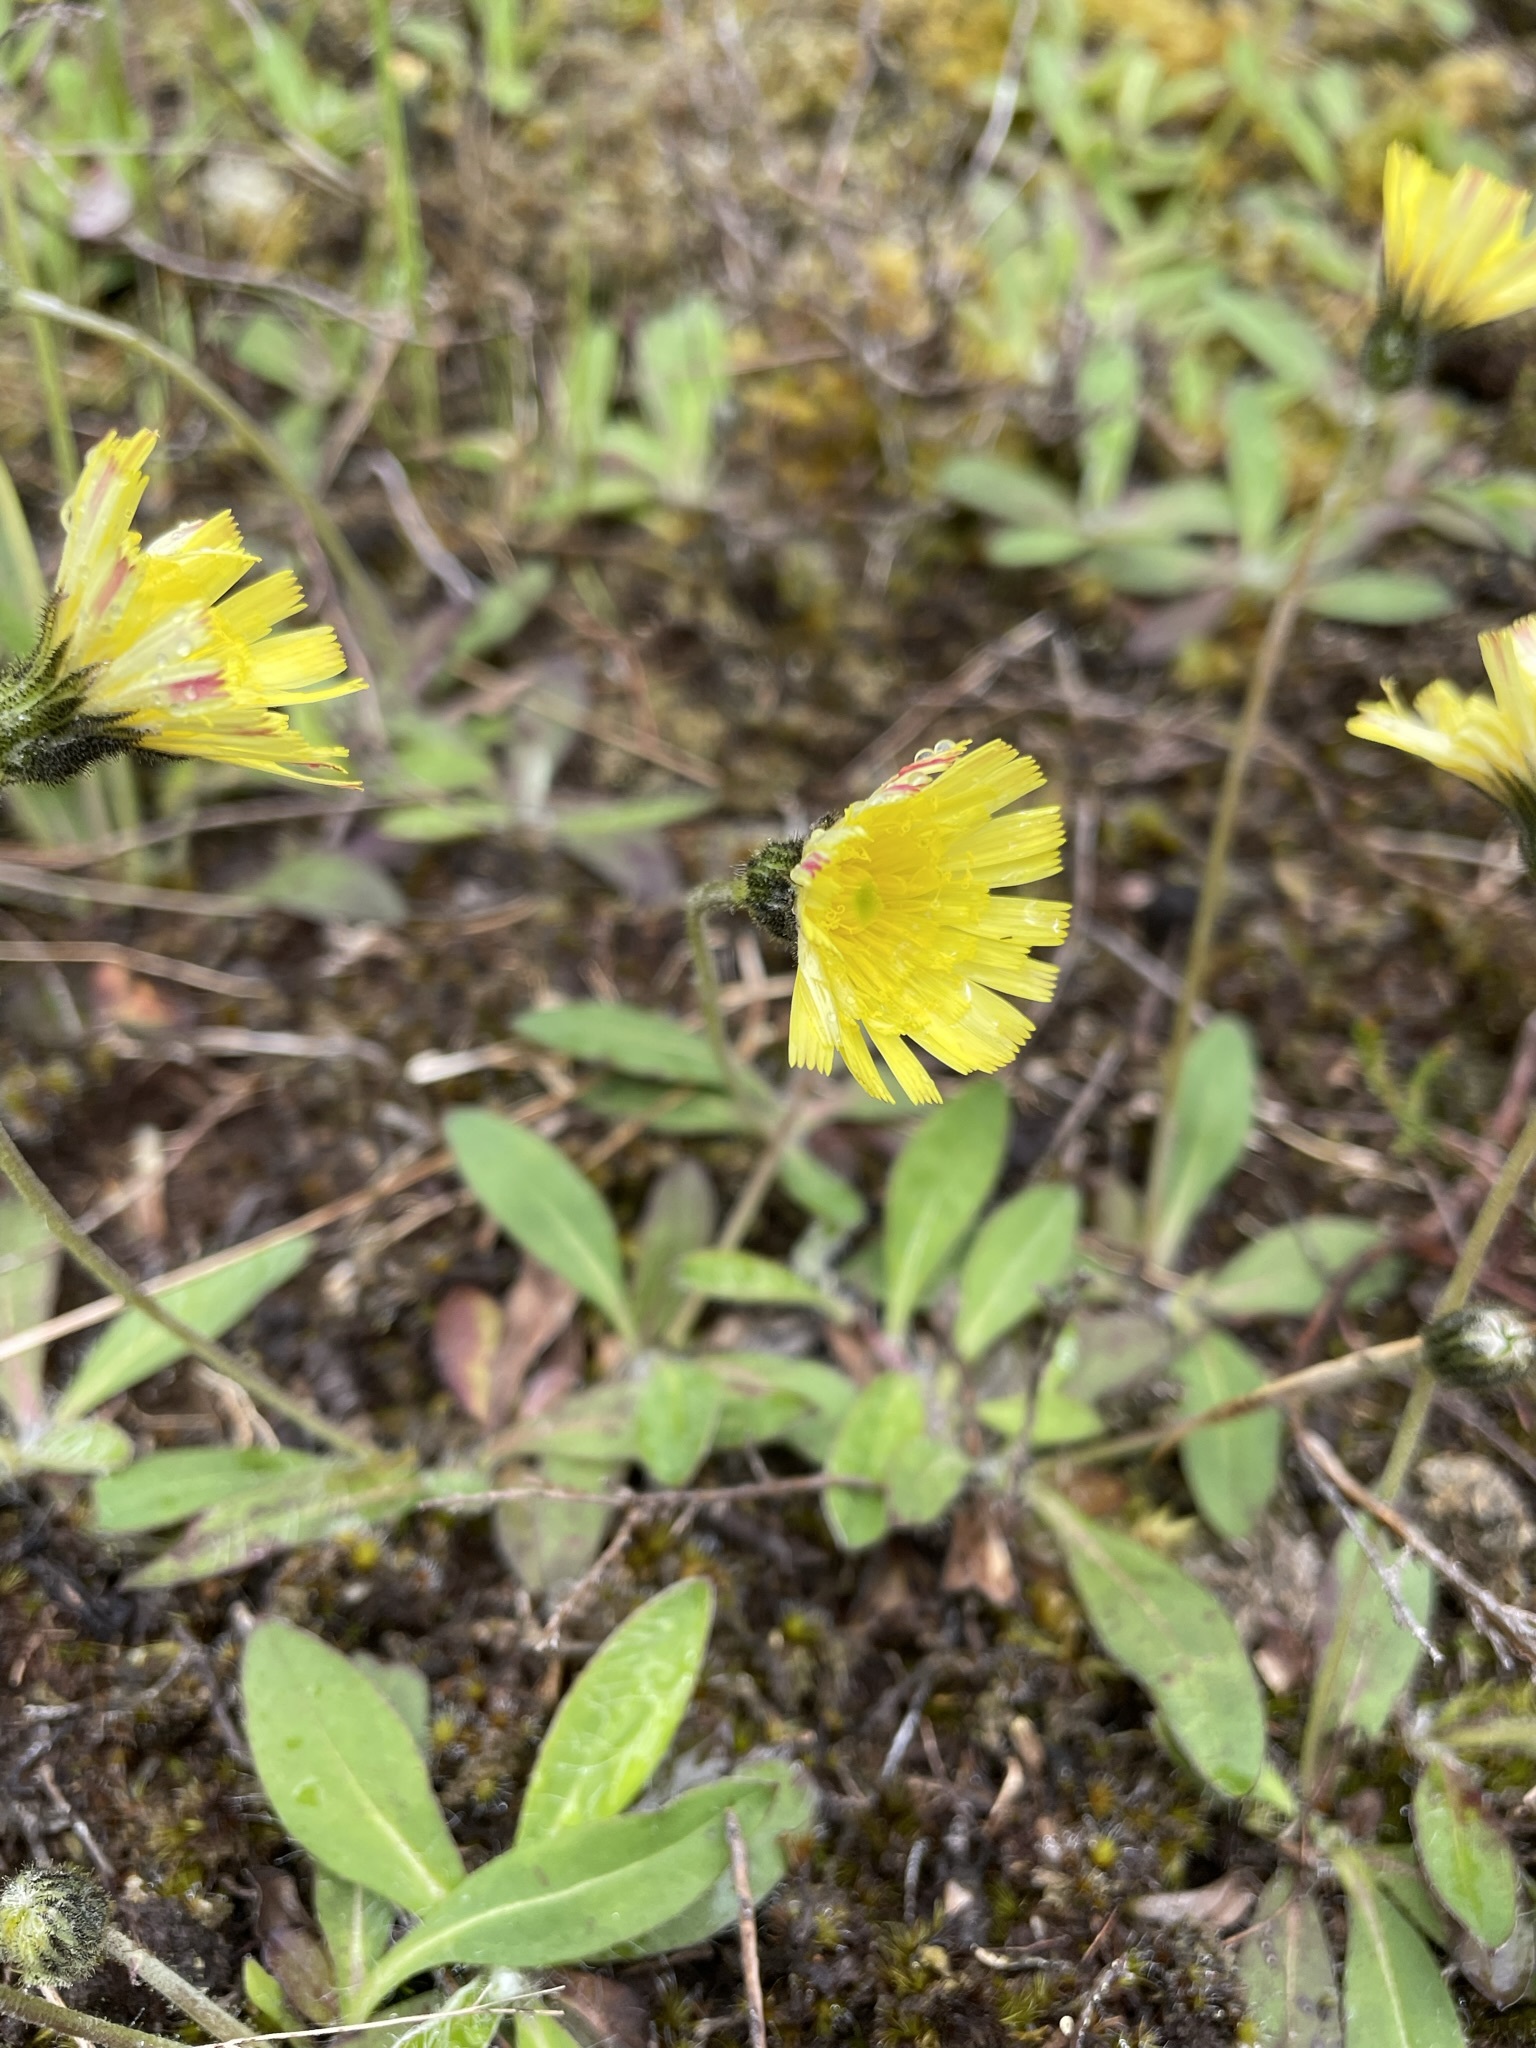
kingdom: Plantae
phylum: Tracheophyta
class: Magnoliopsida
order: Asterales
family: Asteraceae
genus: Pilosella
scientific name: Pilosella officinarum
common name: Mouse-ear hawkweed
